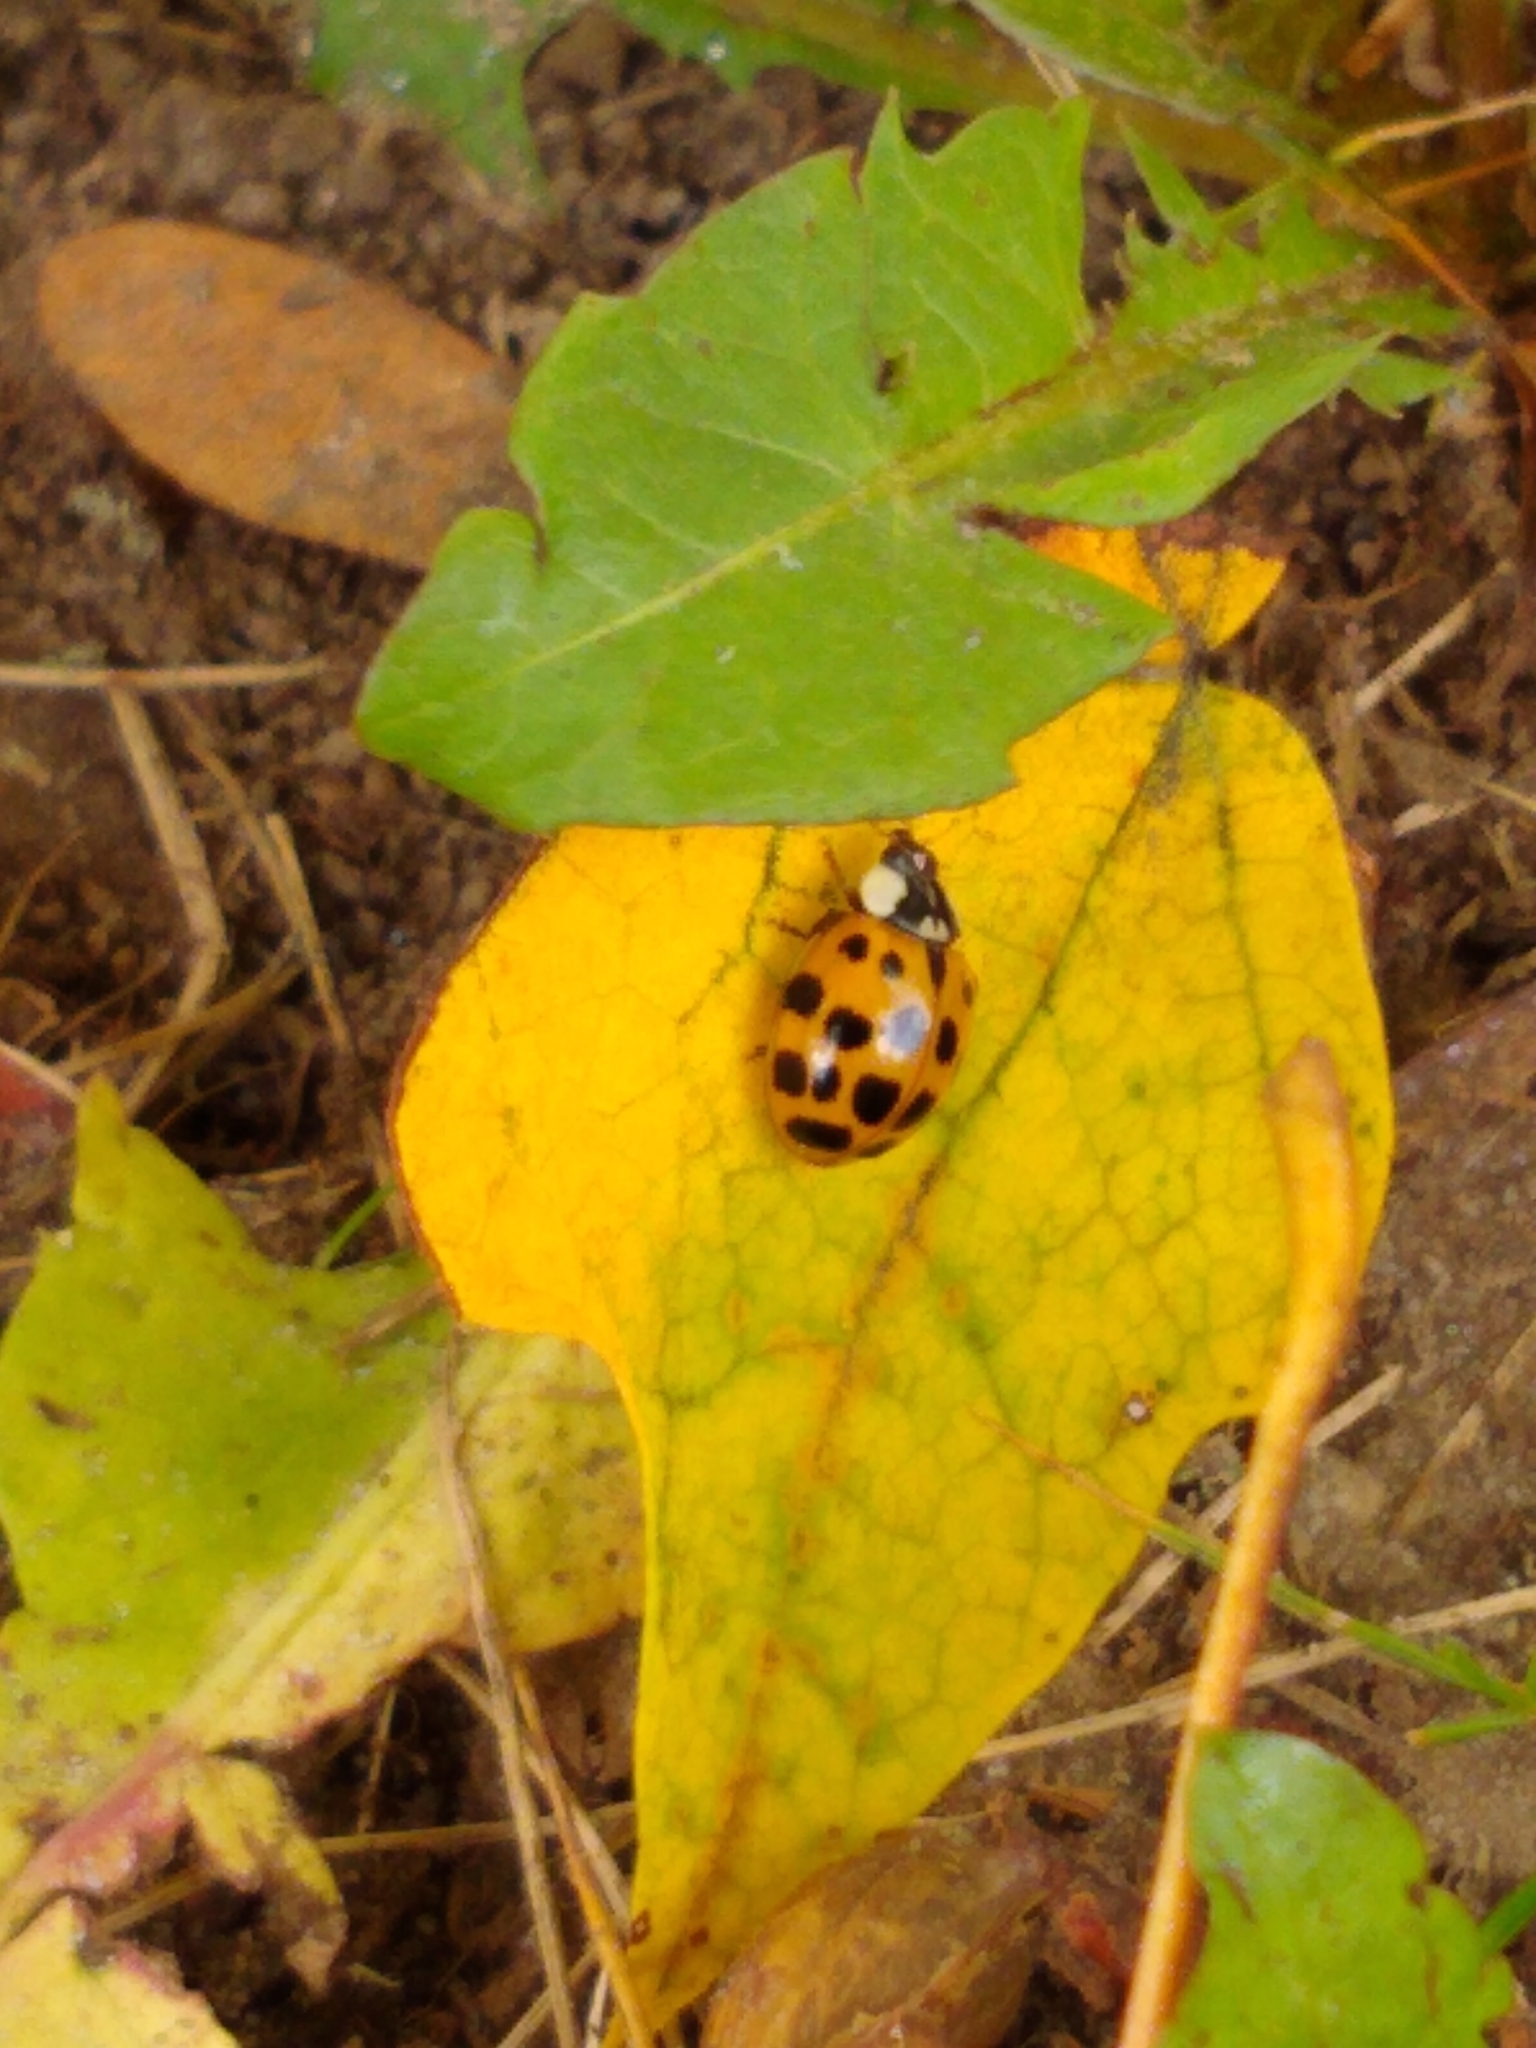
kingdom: Animalia
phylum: Arthropoda
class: Insecta
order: Coleoptera
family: Coccinellidae
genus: Harmonia
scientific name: Harmonia axyridis
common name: Harlequin ladybird
